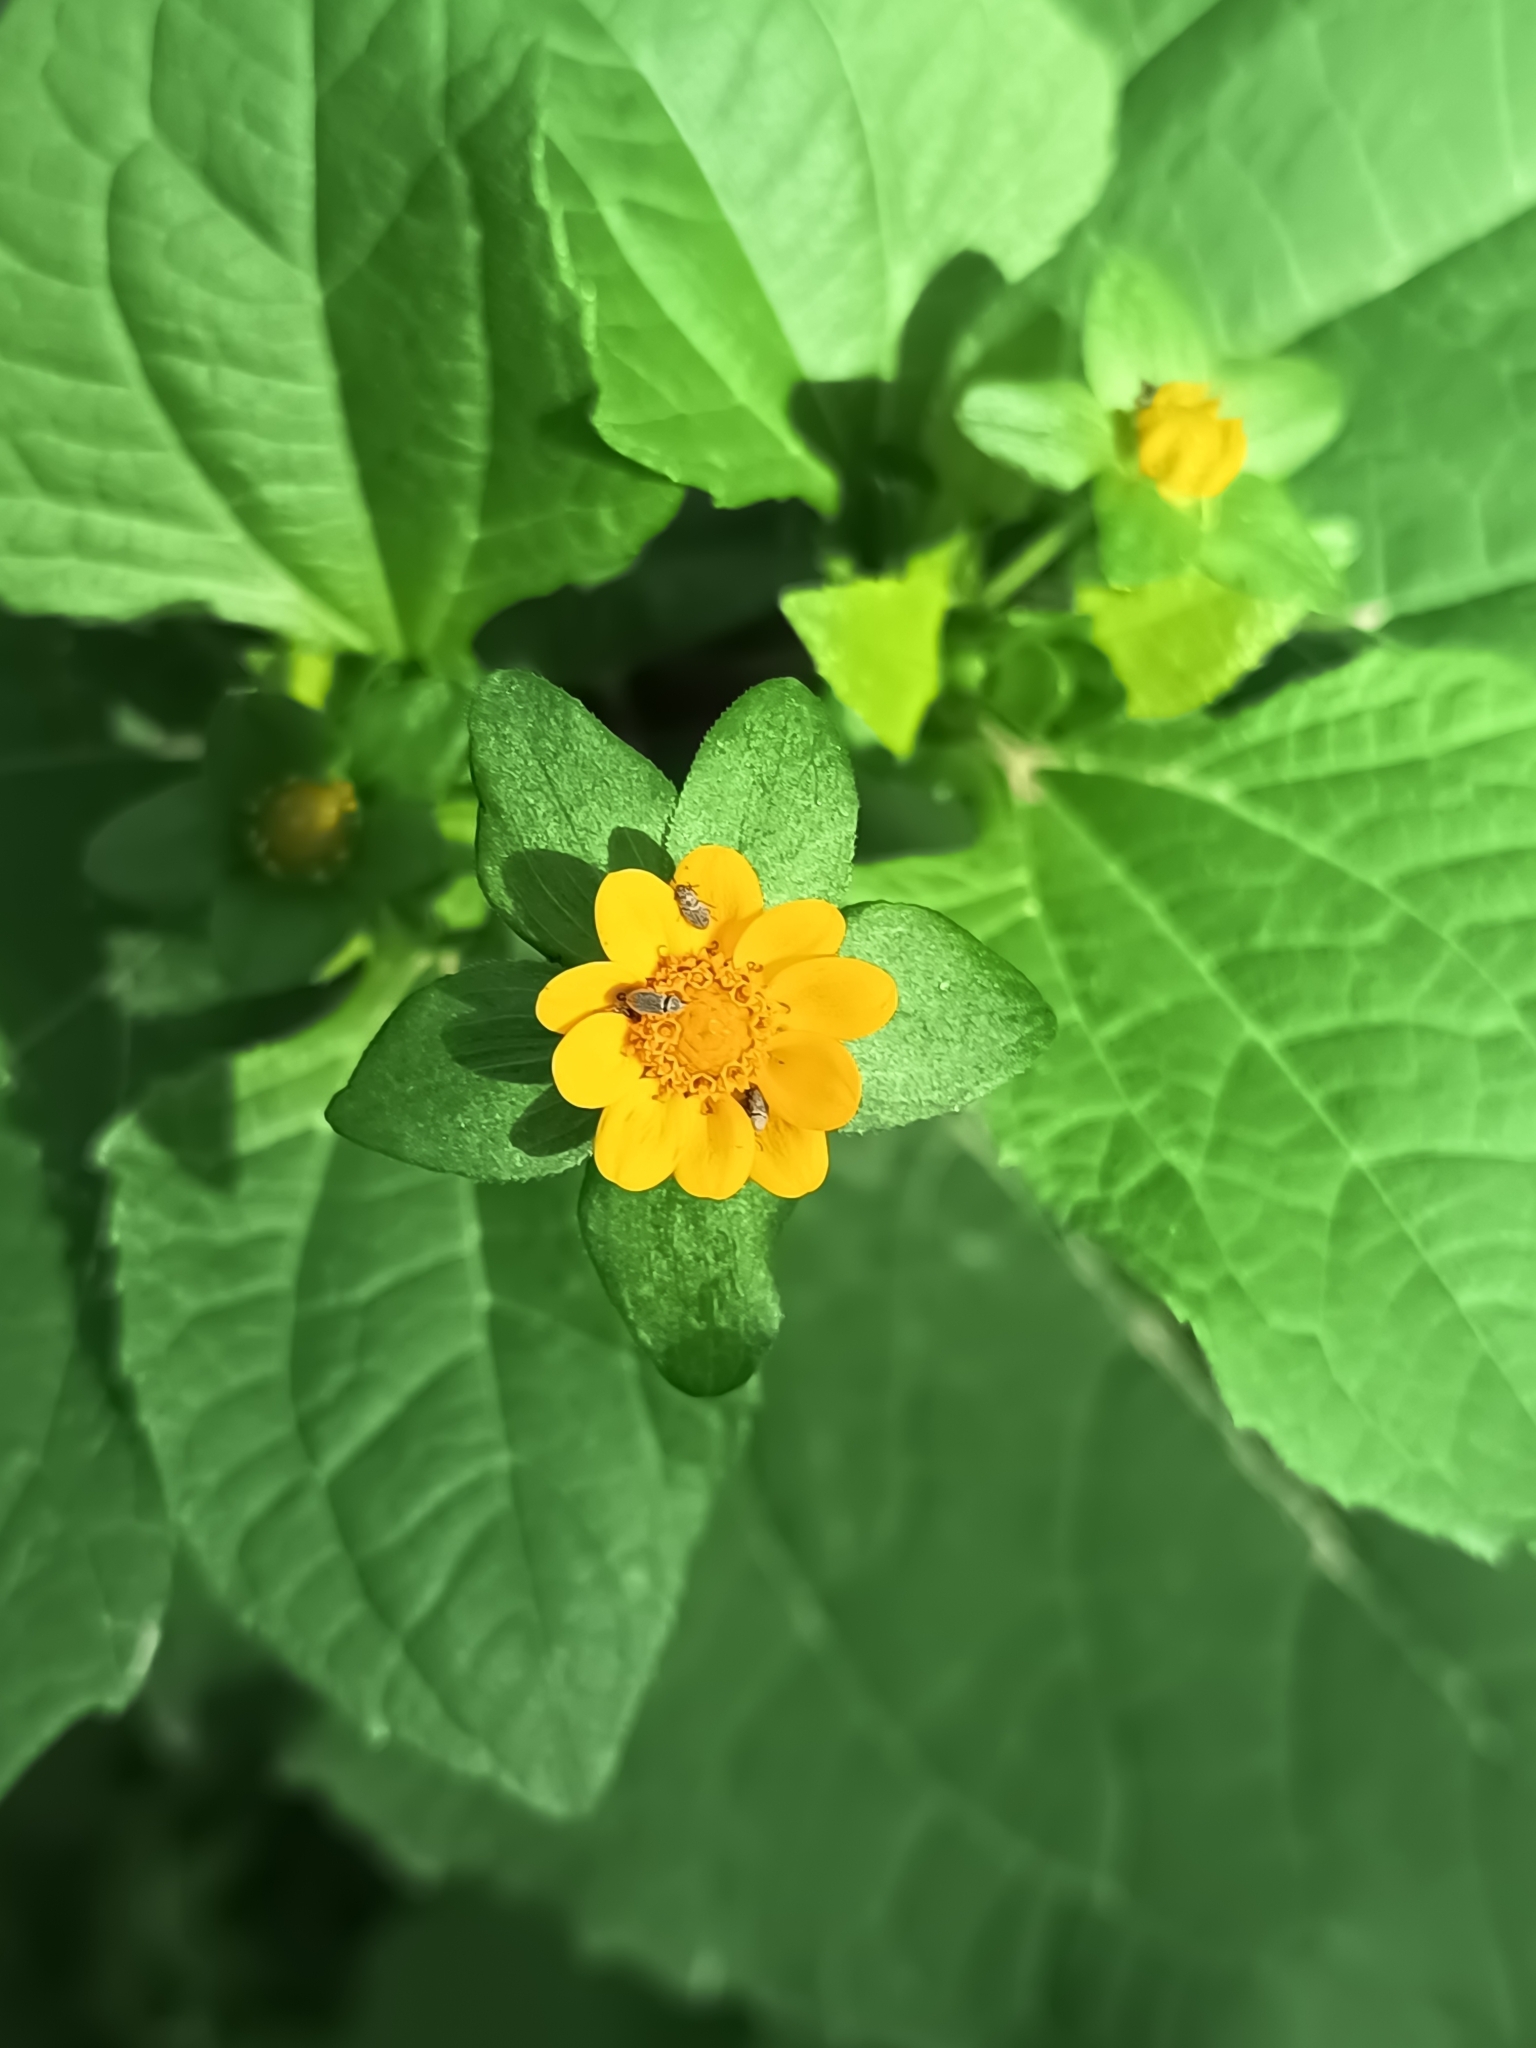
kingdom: Plantae
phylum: Tracheophyta
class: Magnoliopsida
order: Asterales
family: Asteraceae
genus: Melampodium
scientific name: Melampodium divaricatum
